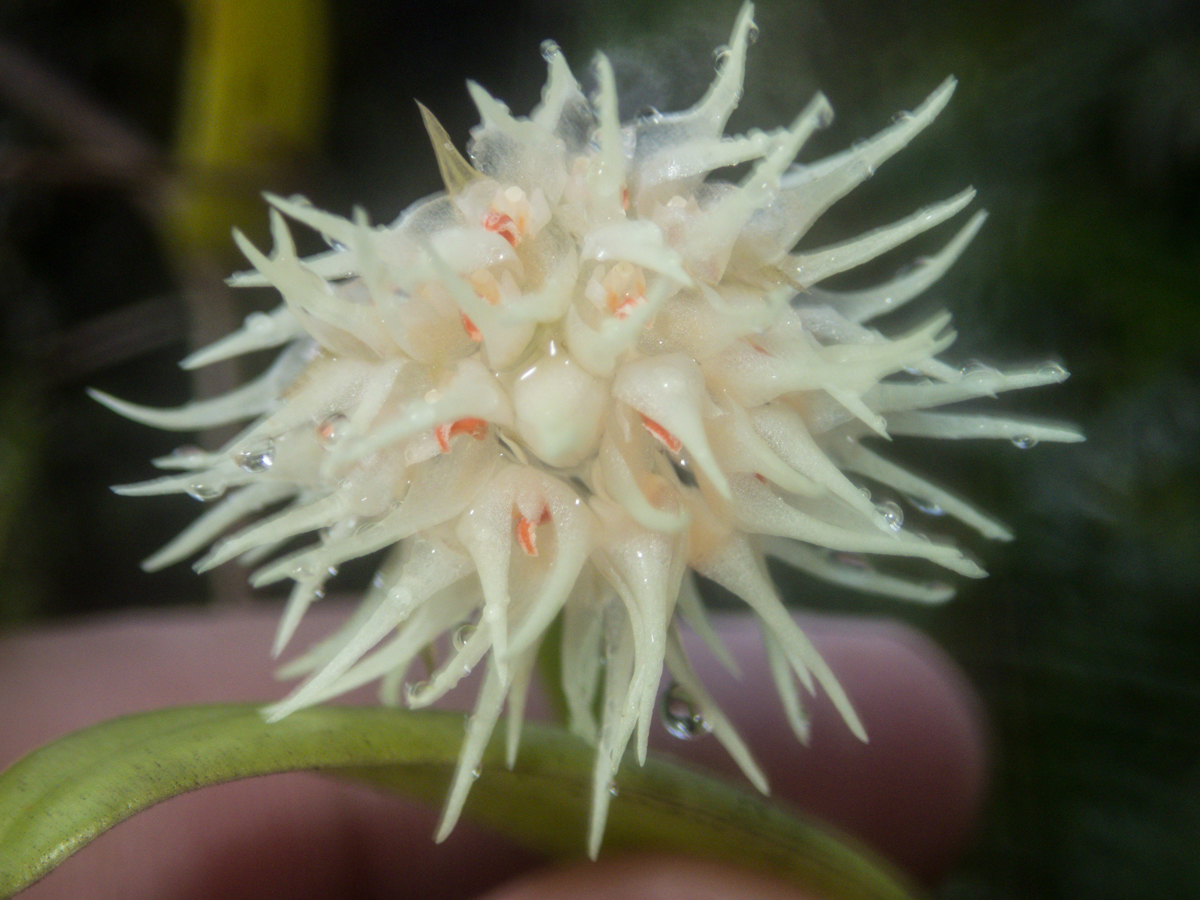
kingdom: Plantae
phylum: Tracheophyta
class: Liliopsida
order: Asparagales
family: Orchidaceae
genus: Bulbophyllum
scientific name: Bulbophyllum odoratissimum
